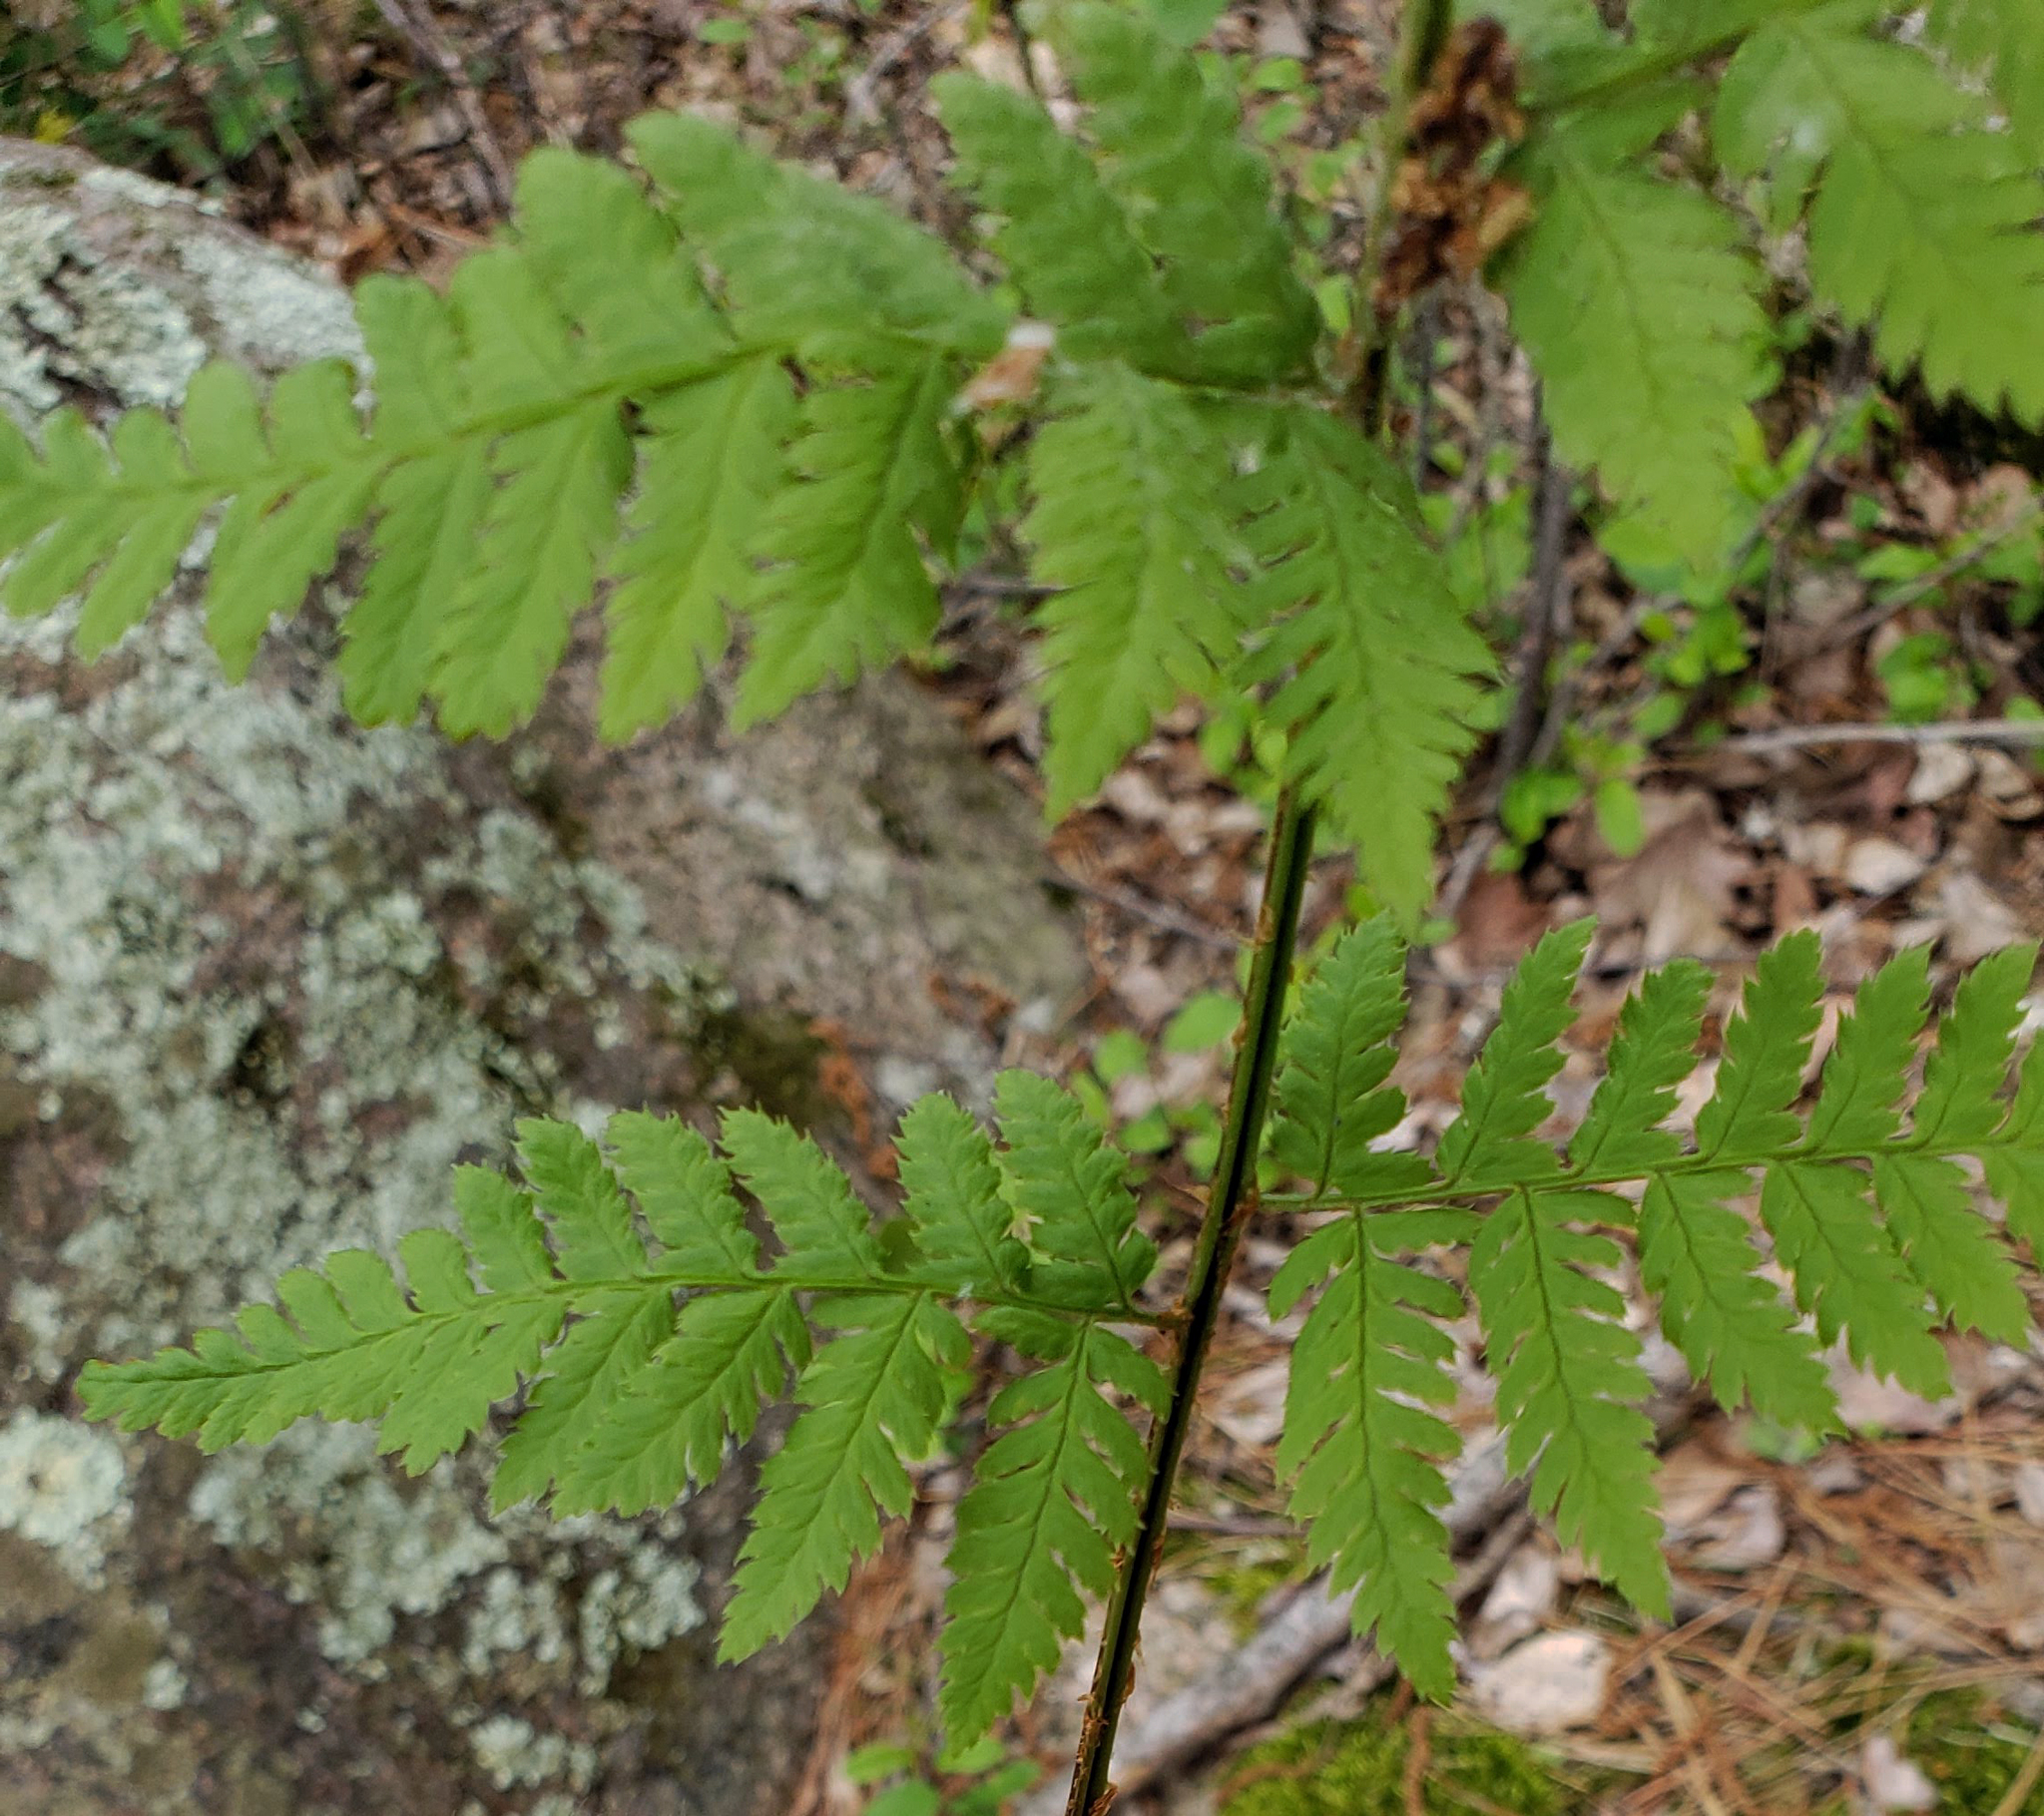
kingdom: Plantae
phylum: Tracheophyta
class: Polypodiopsida
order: Polypodiales
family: Dryopteridaceae
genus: Dryopteris
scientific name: Dryopteris carthusiana
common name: Narrow buckler-fern
